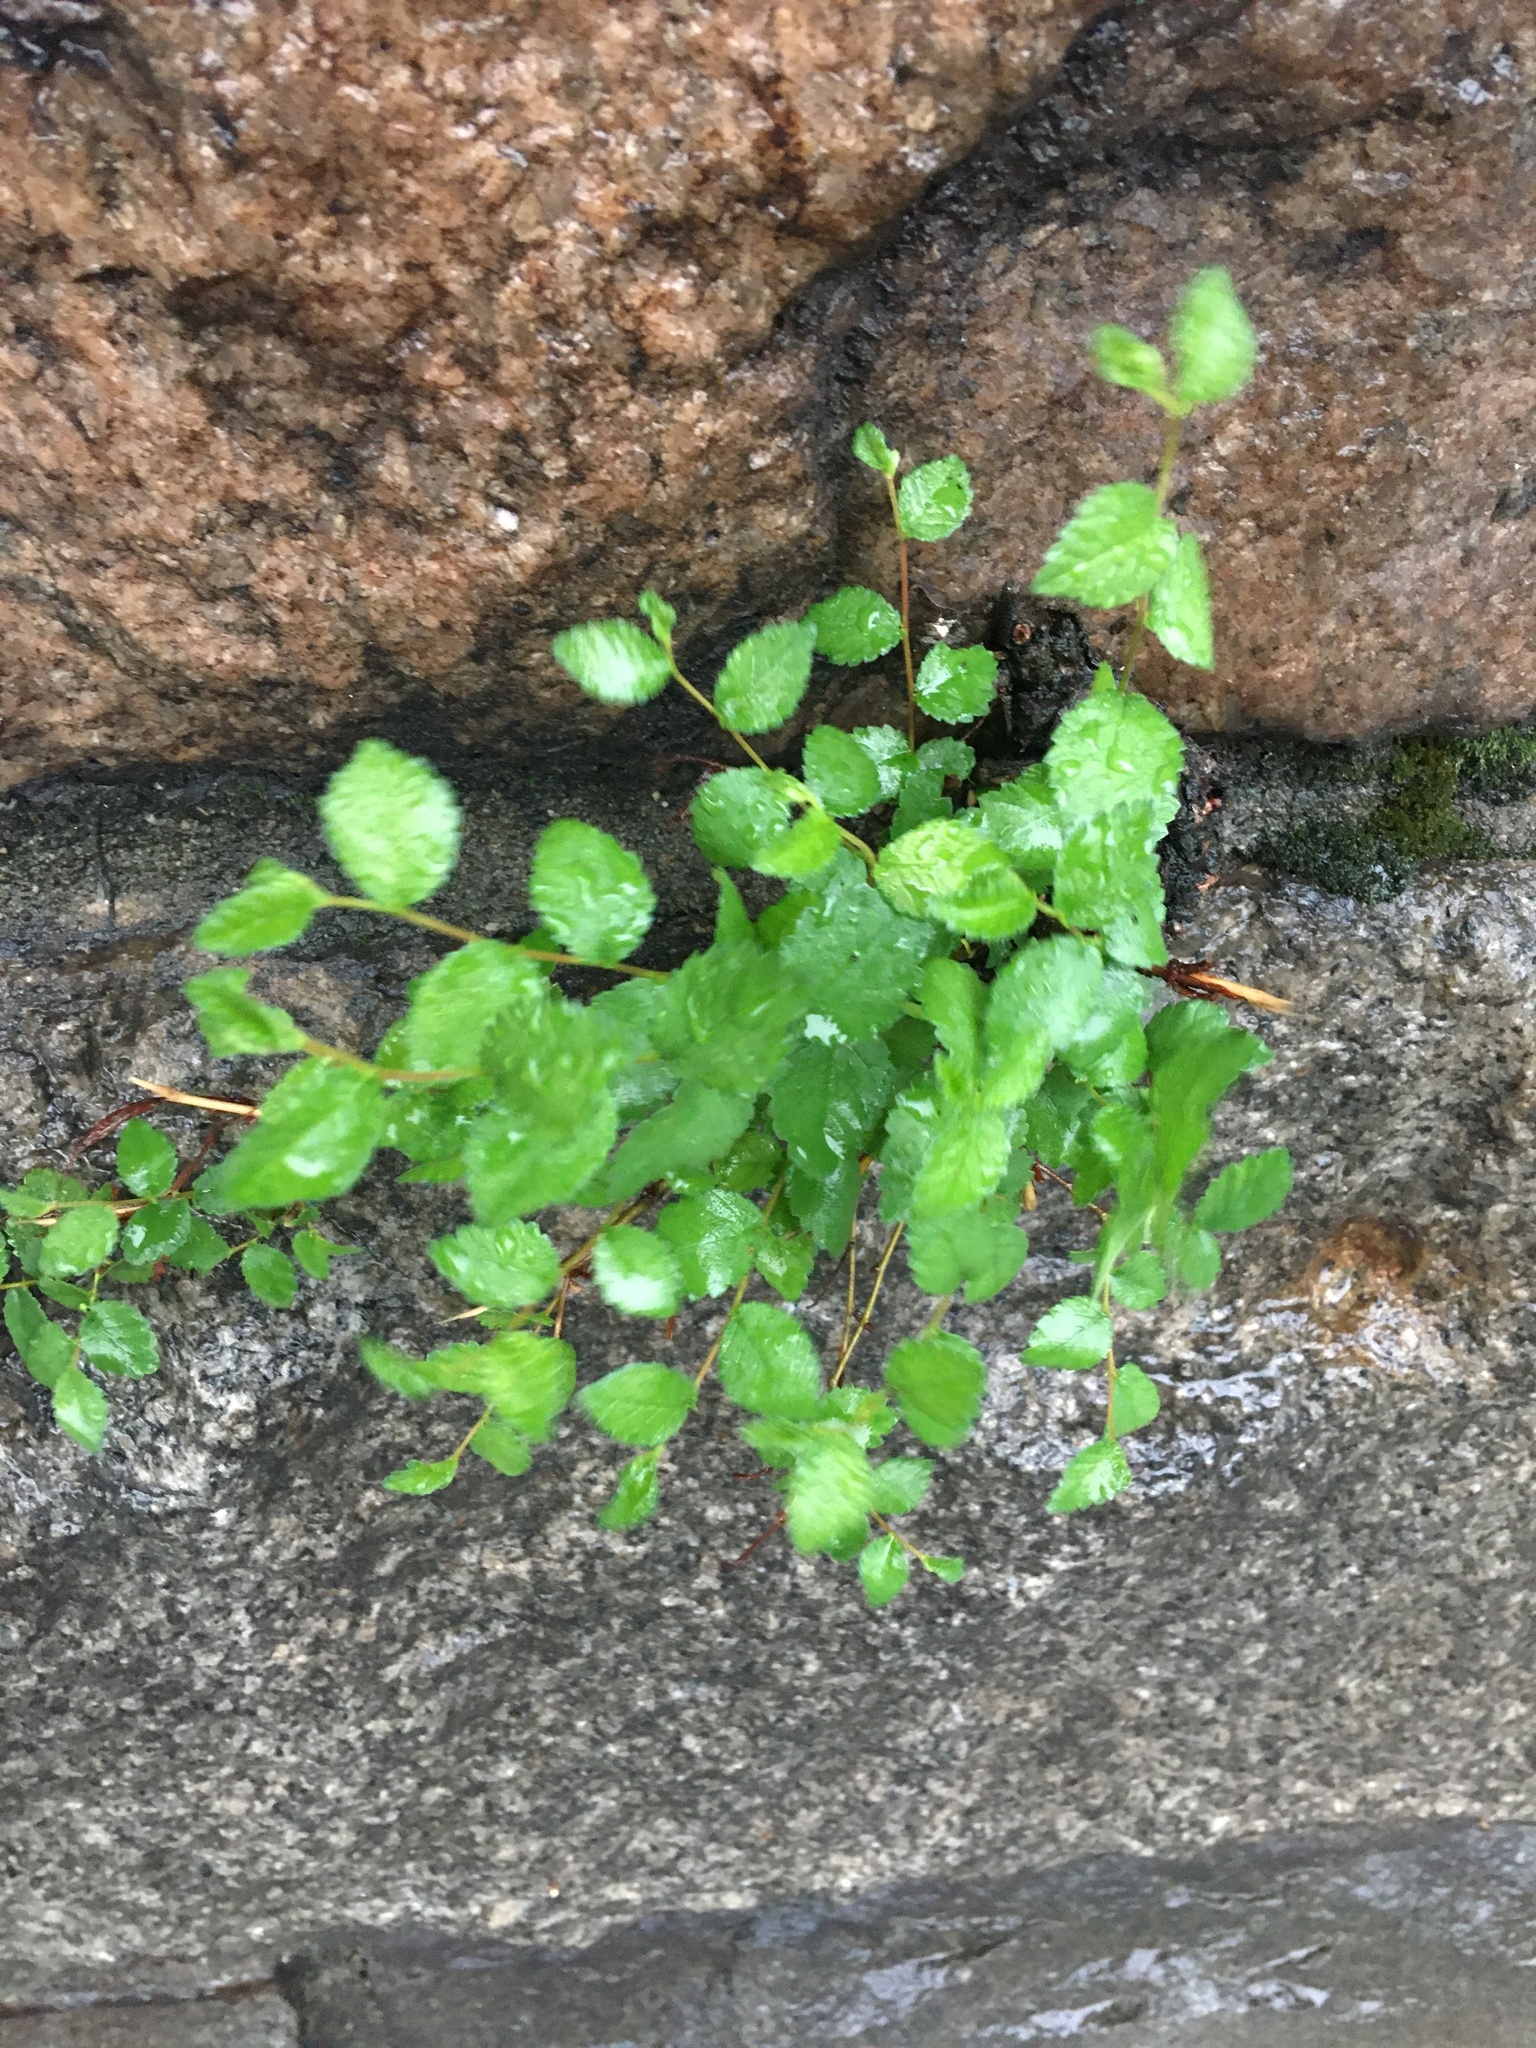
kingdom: Plantae
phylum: Tracheophyta
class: Magnoliopsida
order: Rosales
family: Ulmaceae
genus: Ulmus
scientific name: Ulmus pumila
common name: Siberian elm
